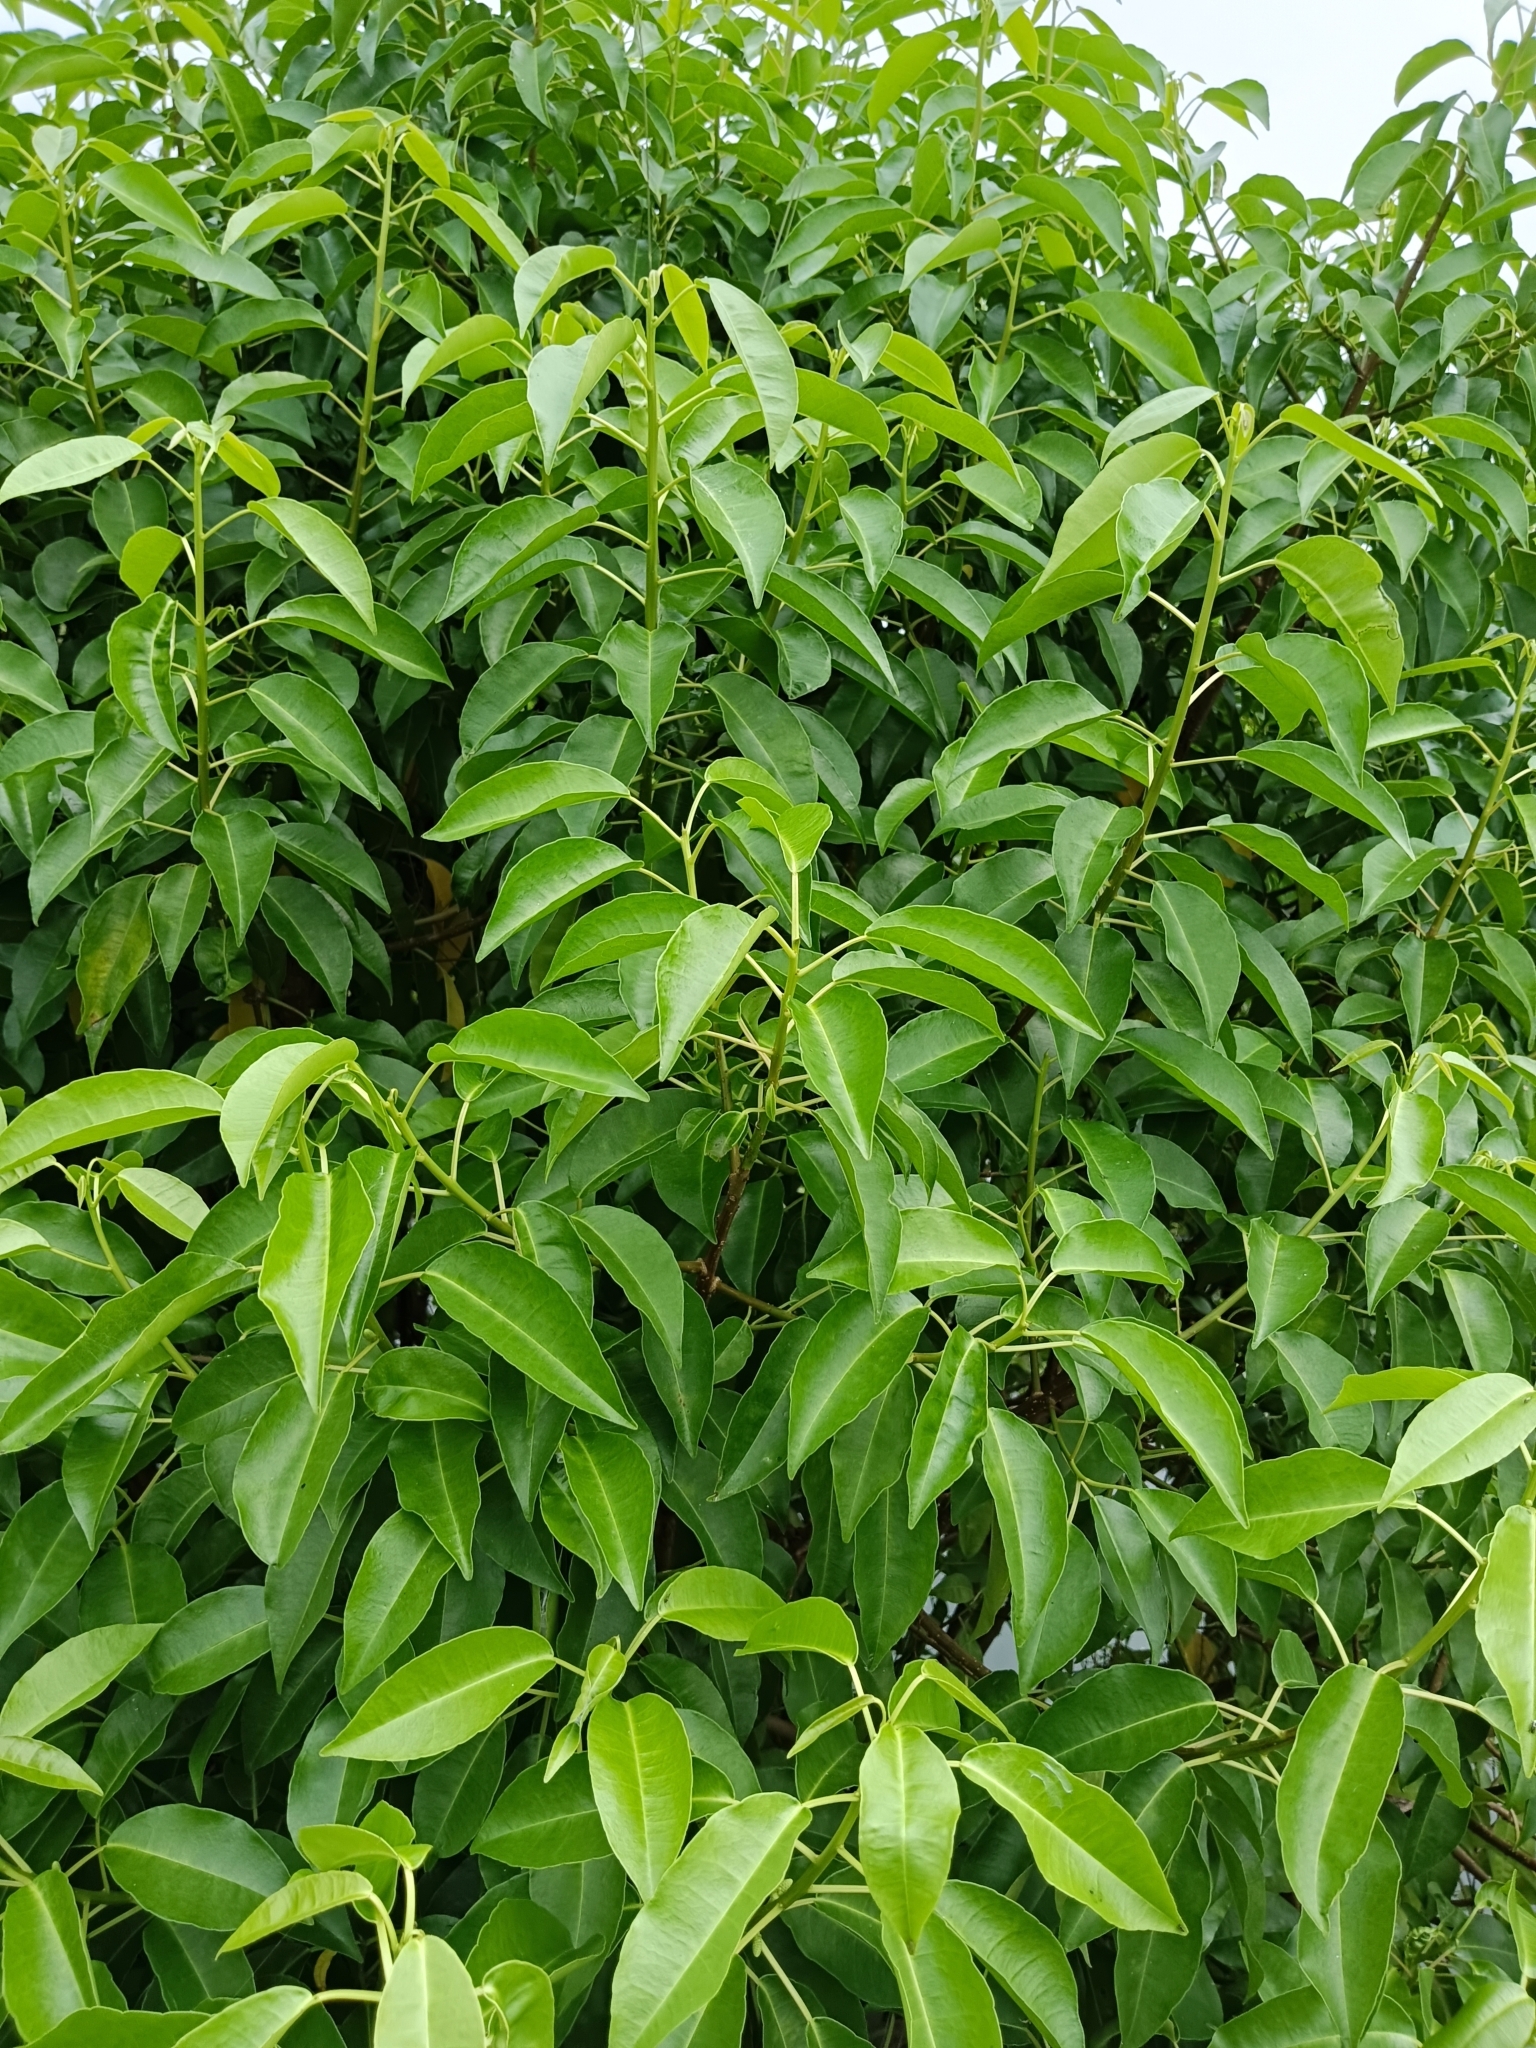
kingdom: Plantae
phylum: Tracheophyta
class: Magnoliopsida
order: Malpighiales
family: Euphorbiaceae
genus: Excoecaria
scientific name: Excoecaria agallocha
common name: River poisontree
